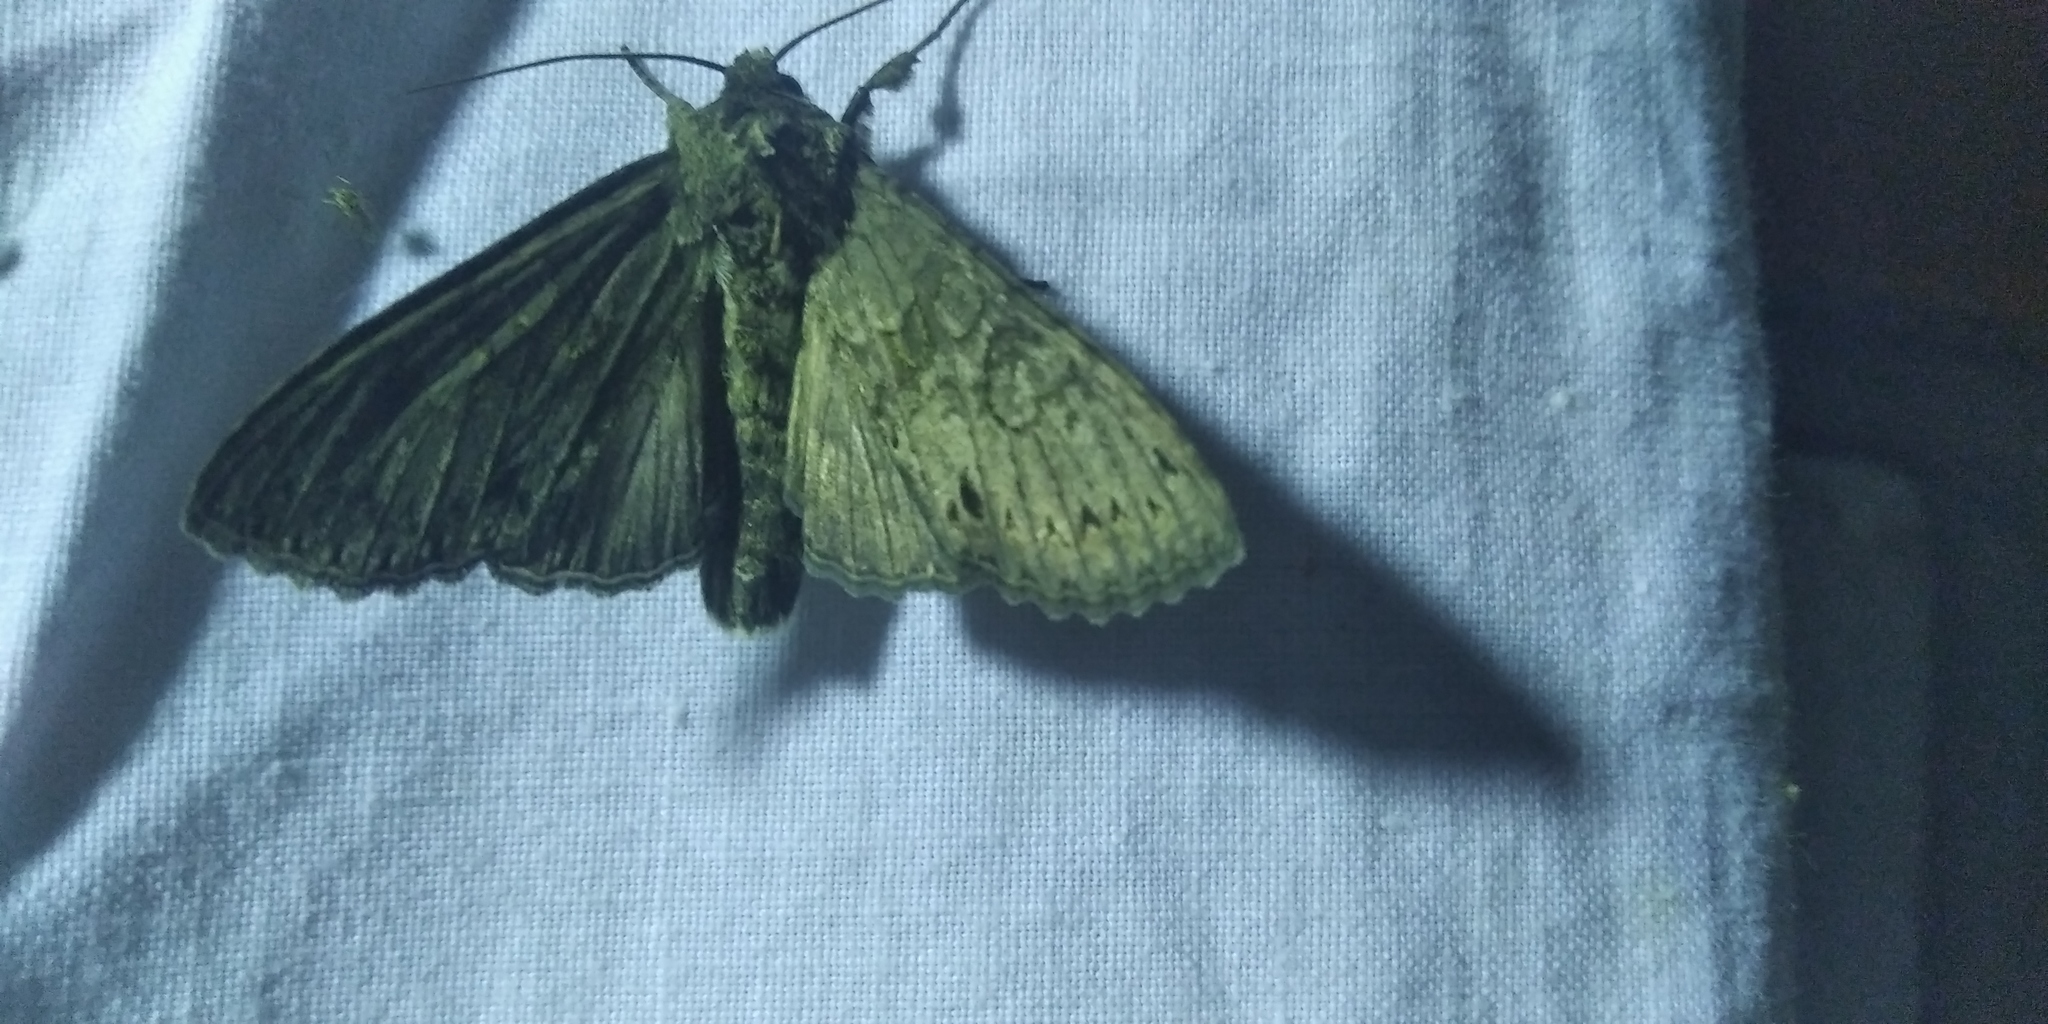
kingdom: Animalia
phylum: Arthropoda
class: Insecta
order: Lepidoptera
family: Noctuidae
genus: Polia
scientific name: Polia nebulosa
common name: Grey arches
